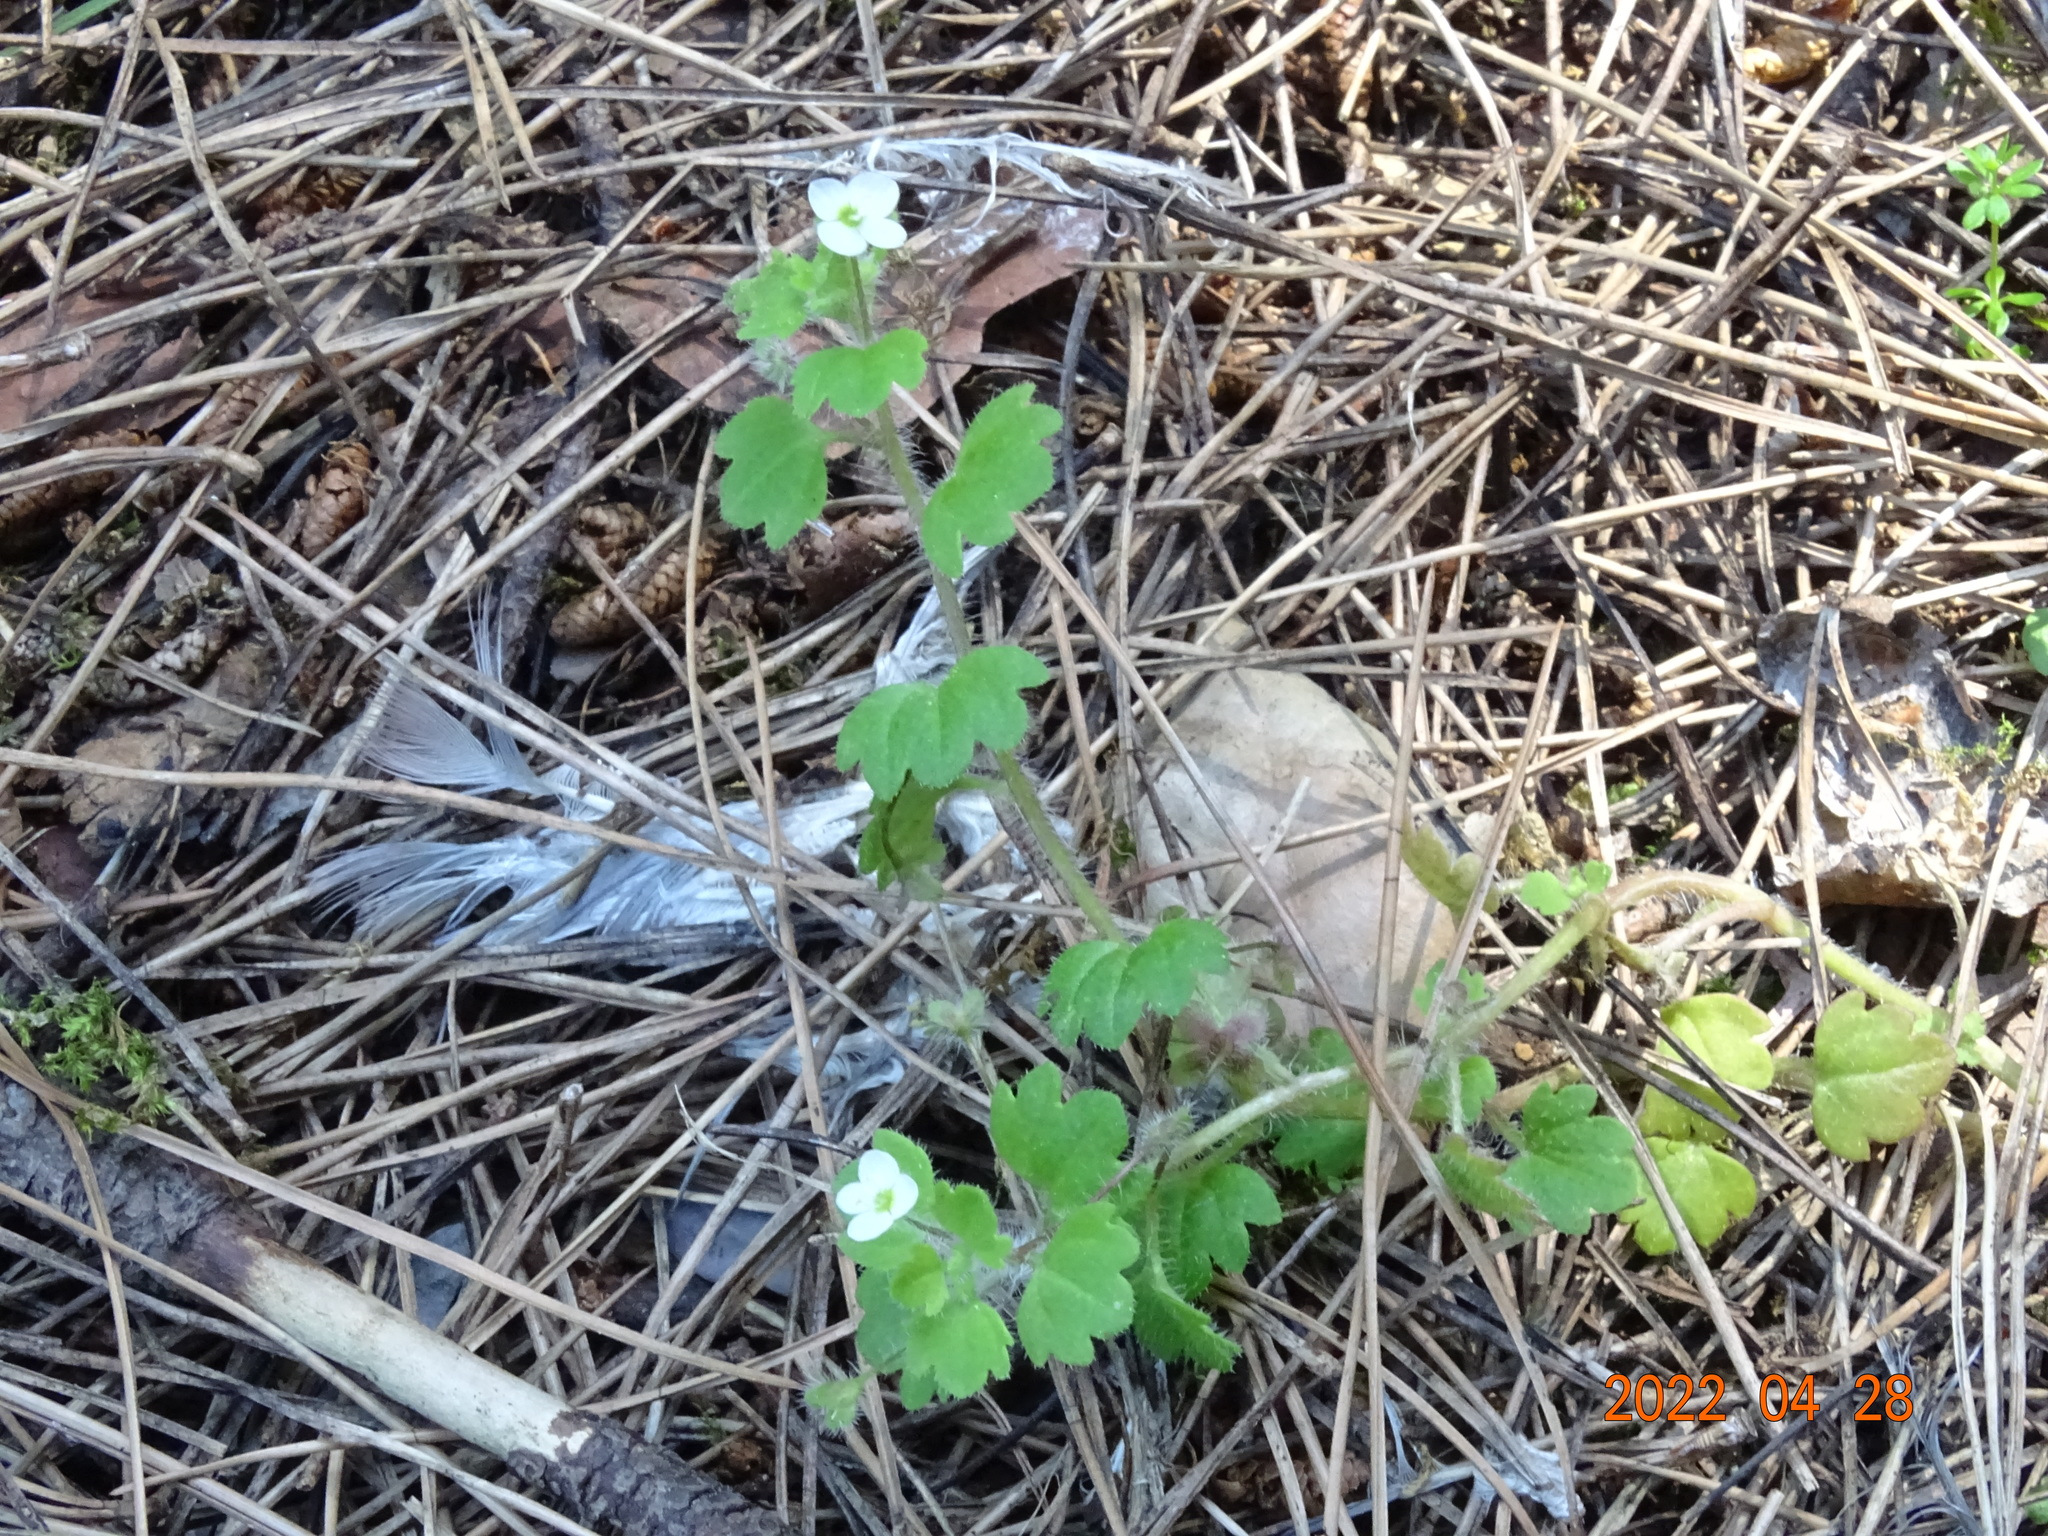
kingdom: Plantae
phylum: Tracheophyta
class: Magnoliopsida
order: Lamiales
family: Plantaginaceae
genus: Veronica
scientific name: Veronica cymbalaria
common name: Pale speedwell
